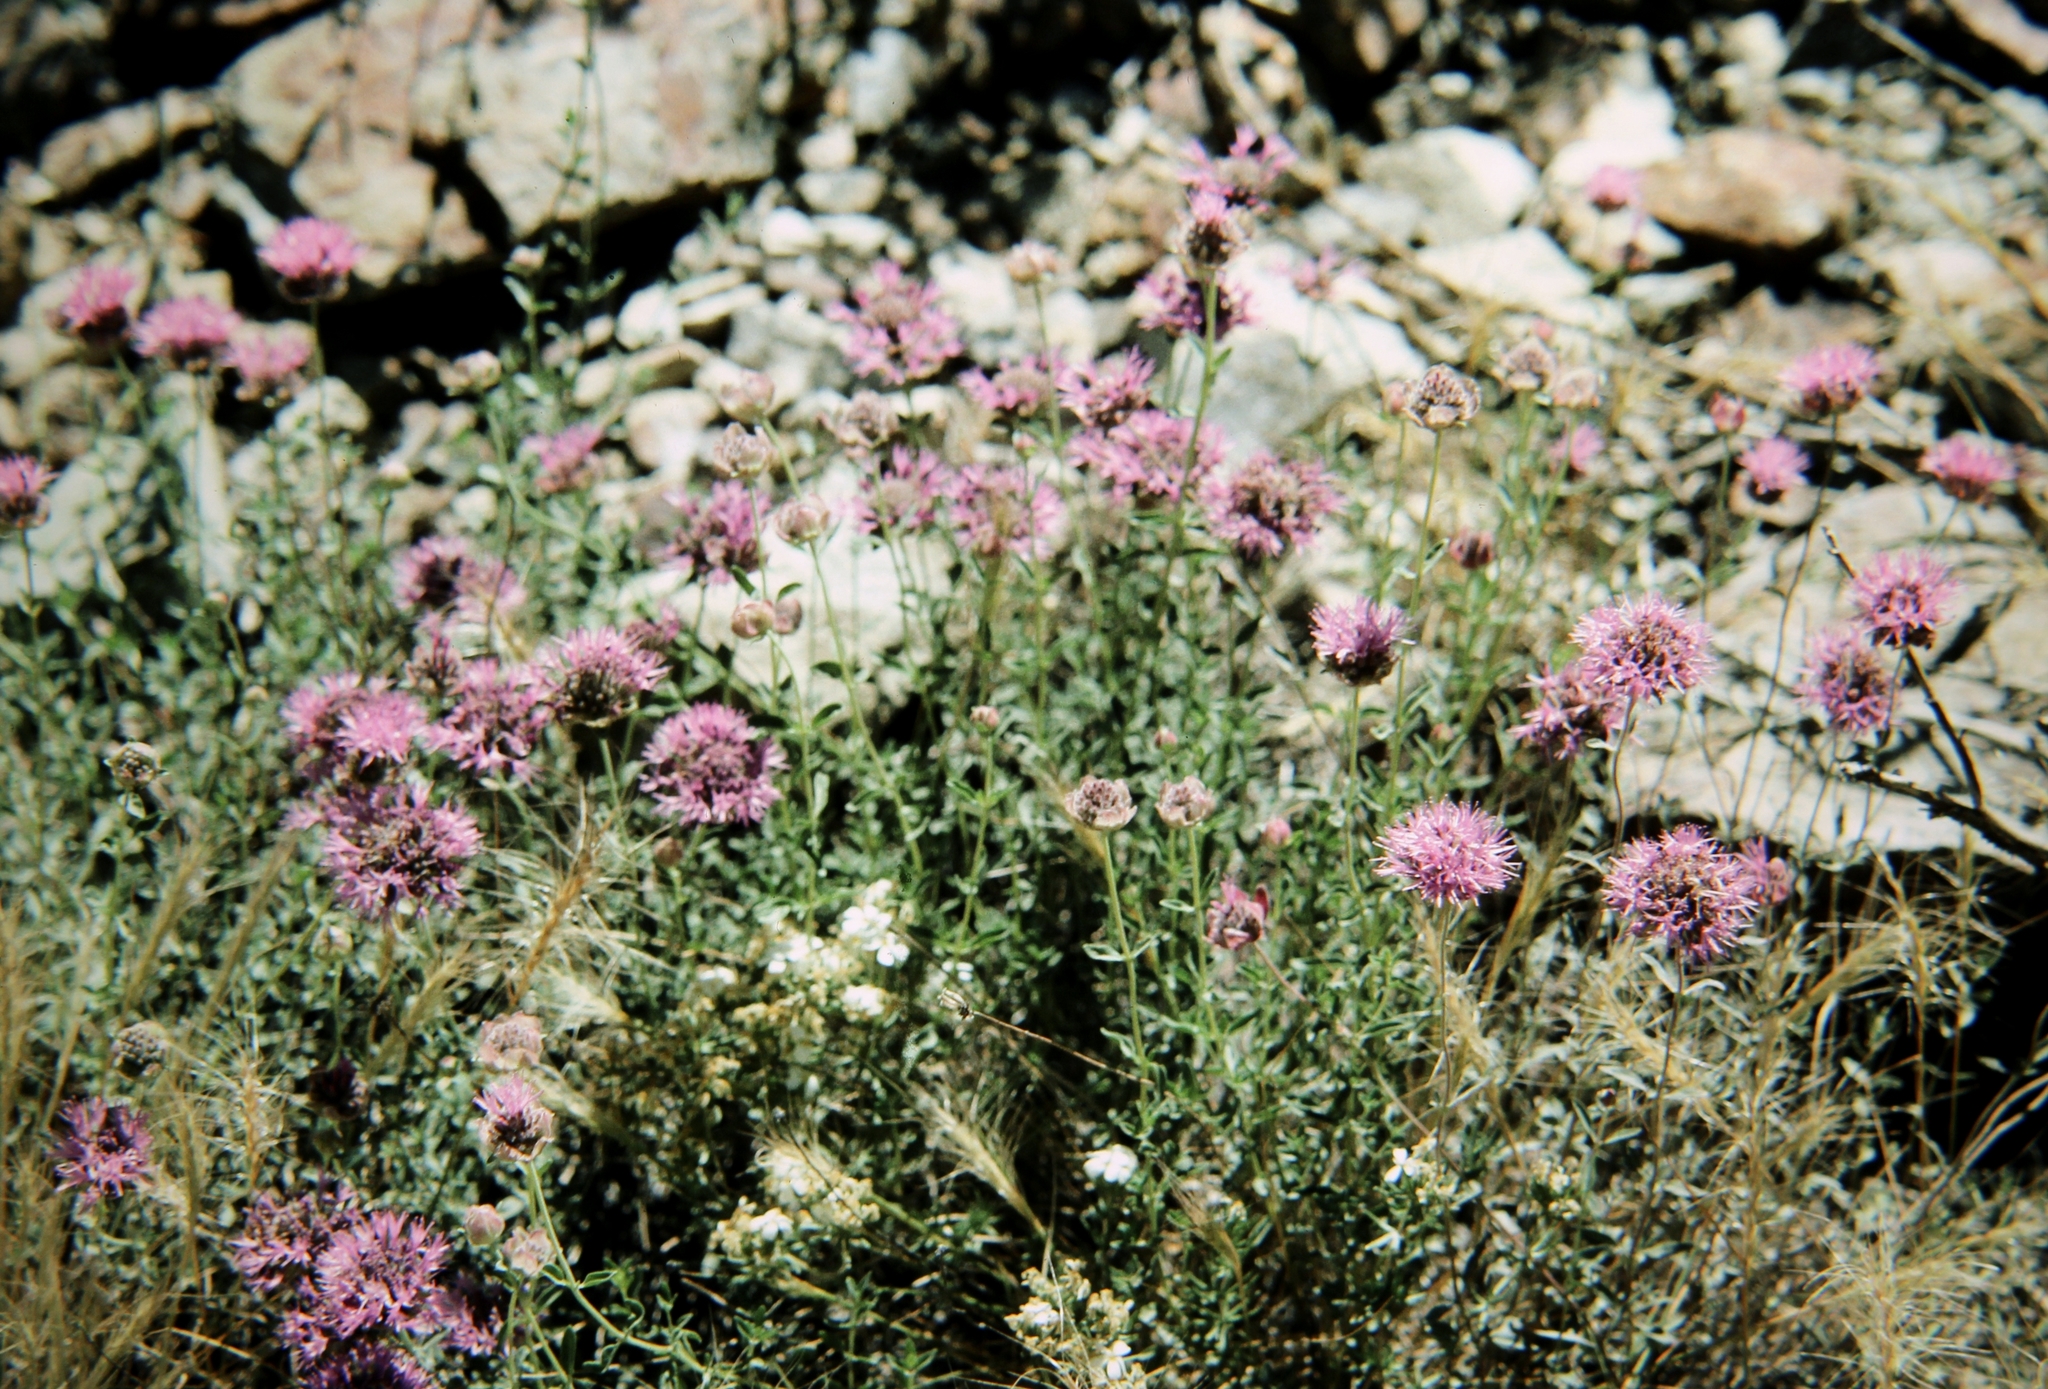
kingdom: Plantae
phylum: Tracheophyta
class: Magnoliopsida
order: Lamiales
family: Lamiaceae
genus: Monardella
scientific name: Monardella odoratissima
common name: Pacific monardella
